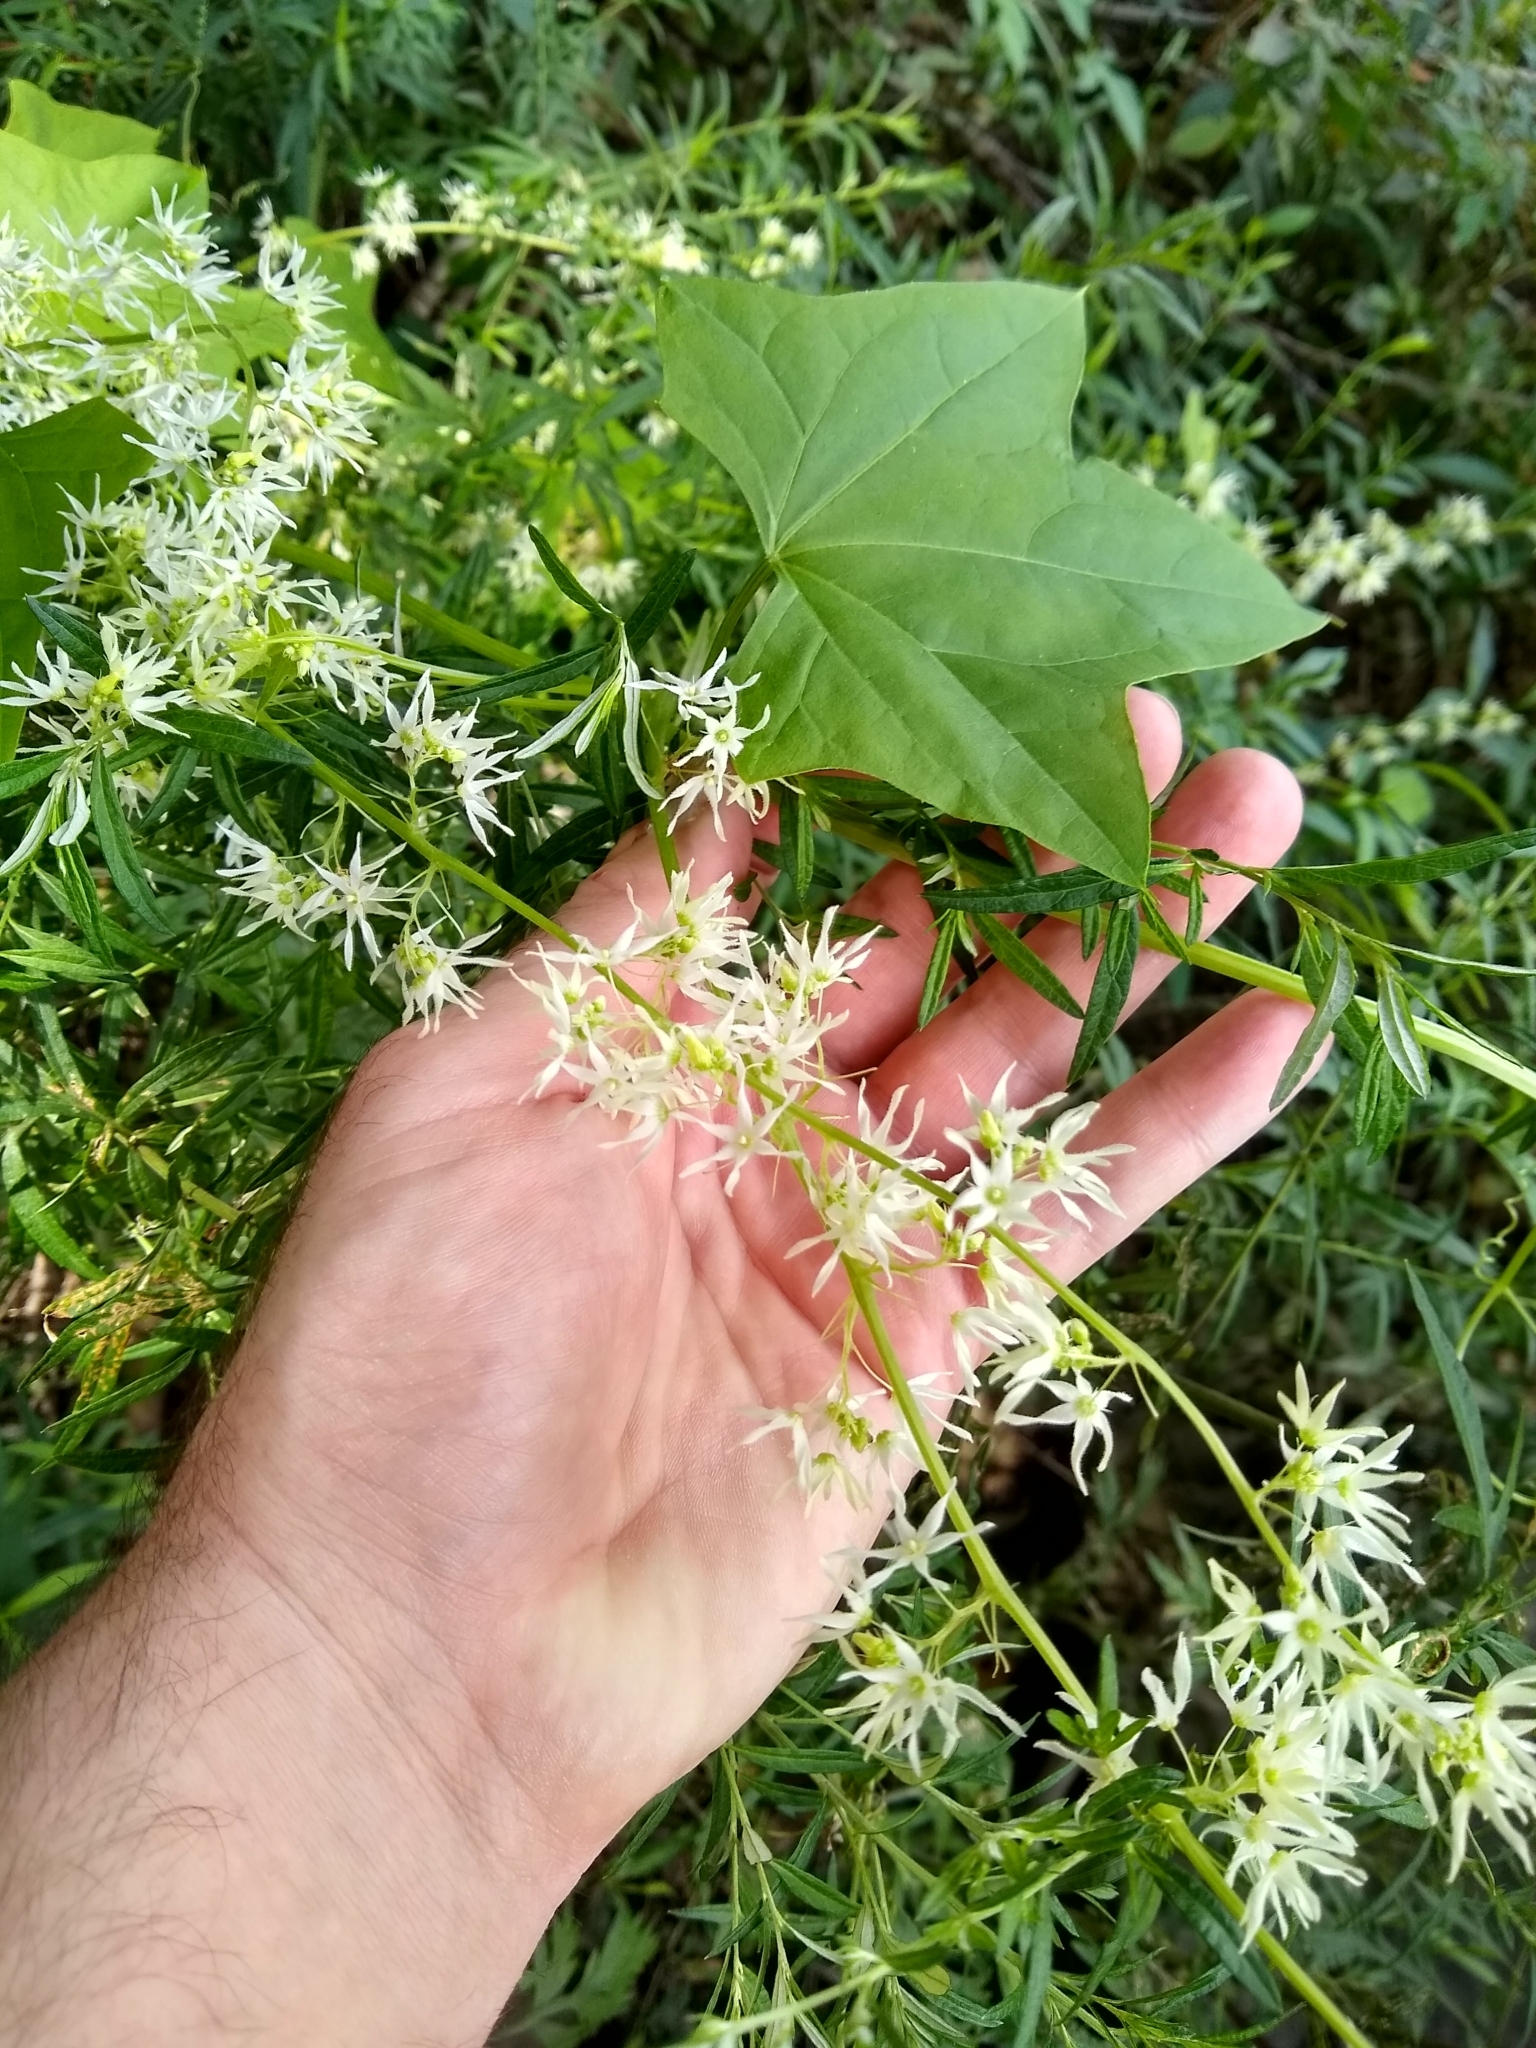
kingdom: Plantae
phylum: Tracheophyta
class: Magnoliopsida
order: Cucurbitales
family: Cucurbitaceae
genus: Echinocystis
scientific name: Echinocystis lobata
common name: Wild cucumber
